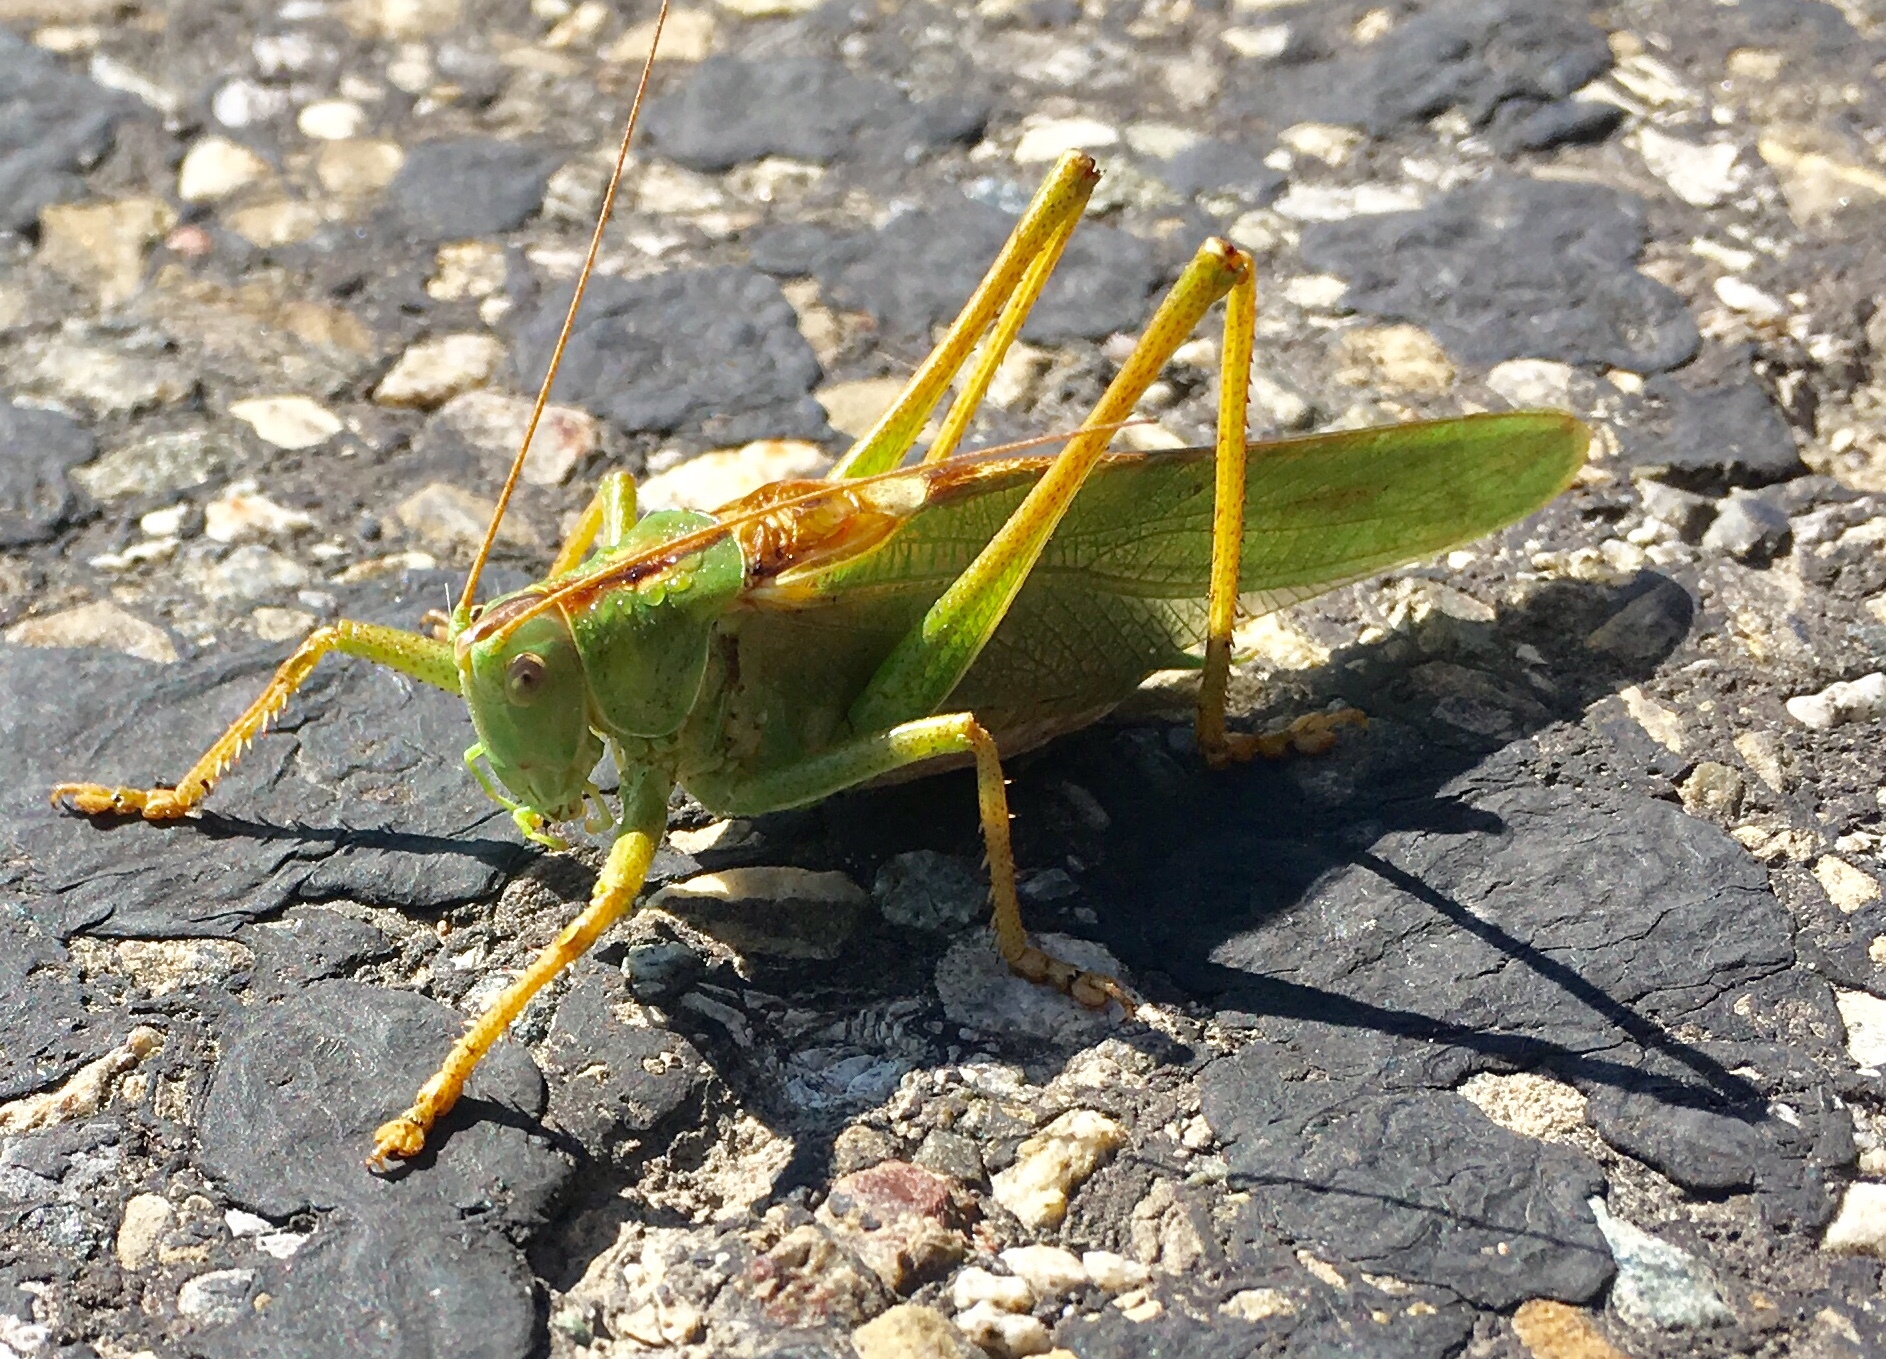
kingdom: Animalia
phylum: Arthropoda
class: Insecta
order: Orthoptera
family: Tettigoniidae
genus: Tettigonia
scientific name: Tettigonia viridissima
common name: Great green bush-cricket
